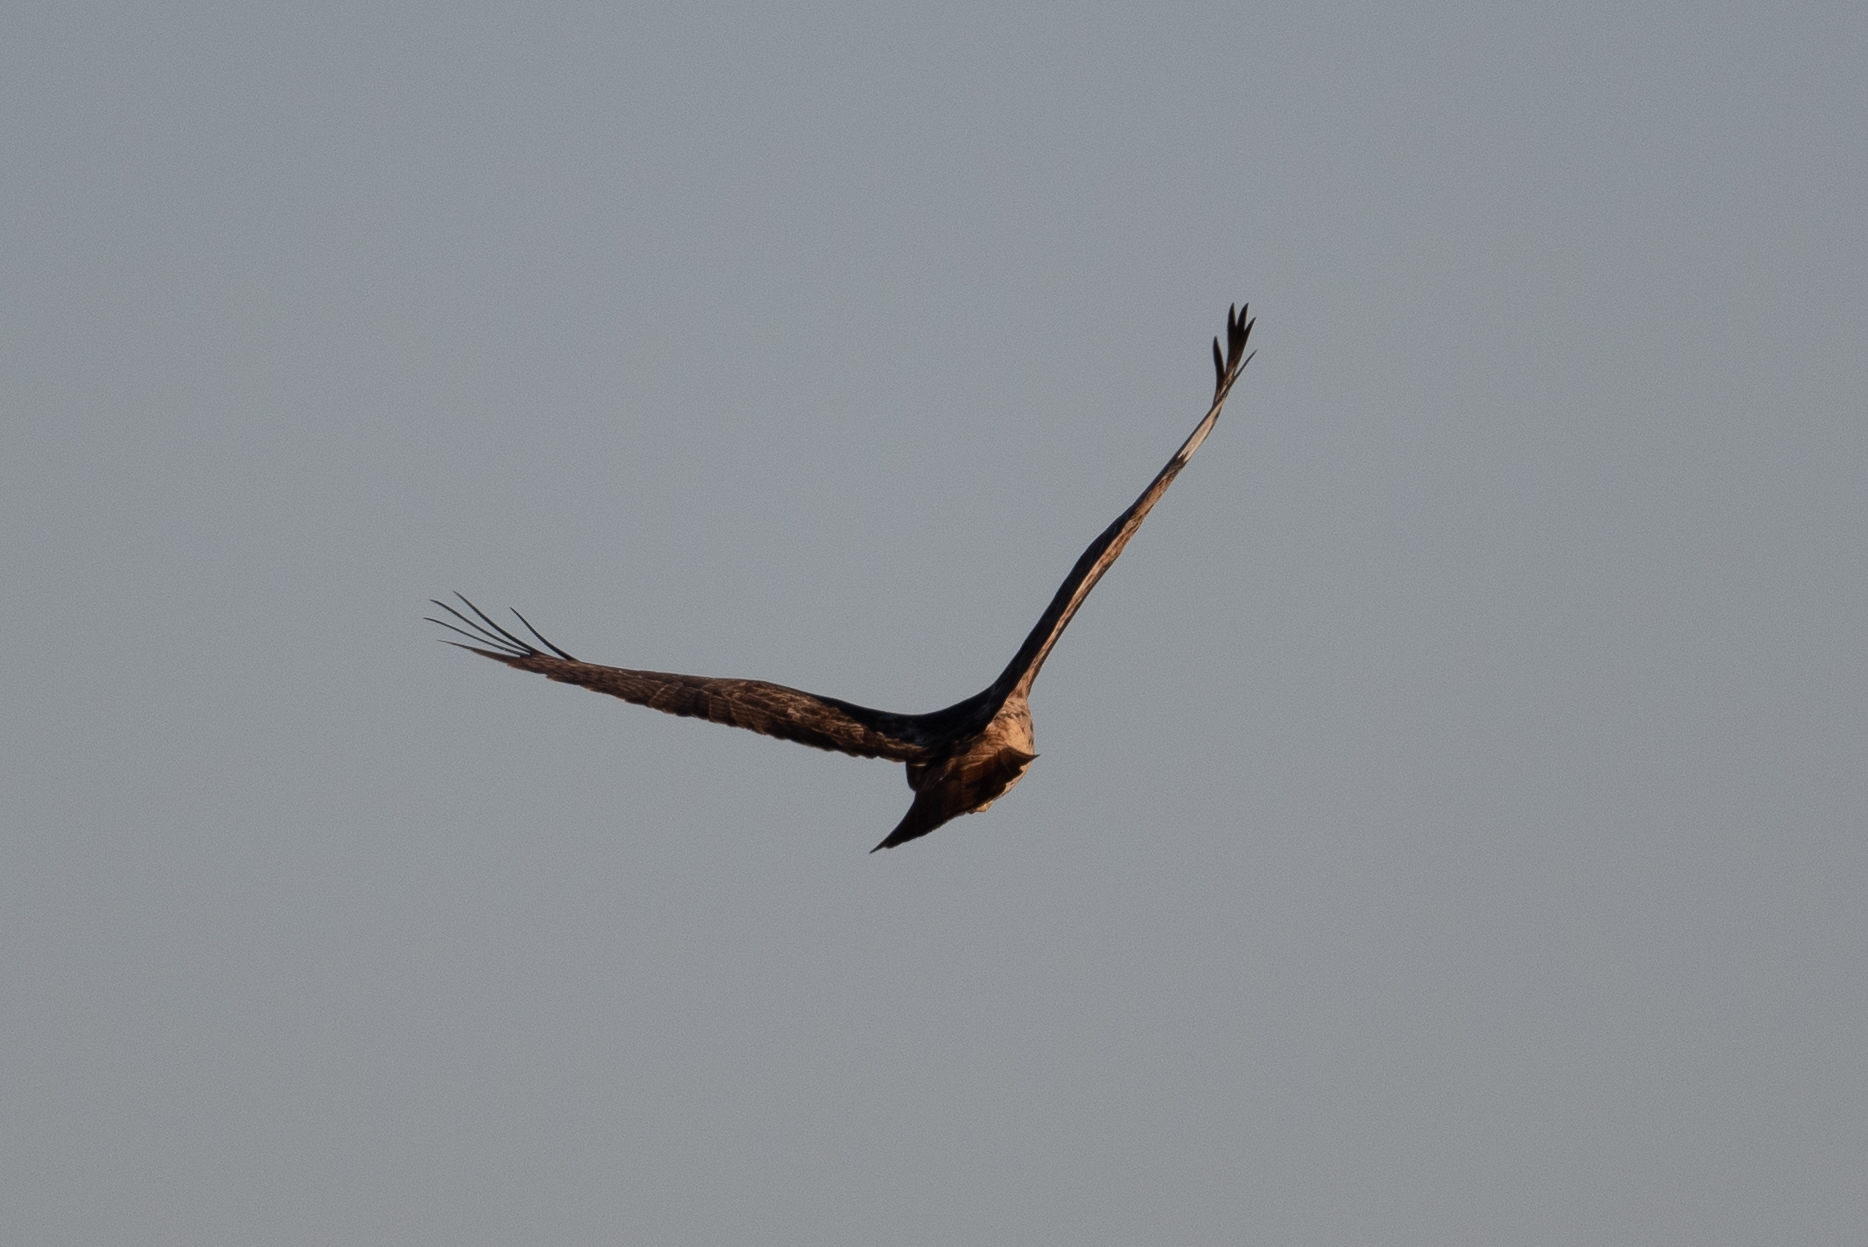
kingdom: Animalia
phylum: Chordata
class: Aves
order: Accipitriformes
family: Accipitridae
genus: Buteo
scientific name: Buteo jamaicensis
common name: Red-tailed hawk
